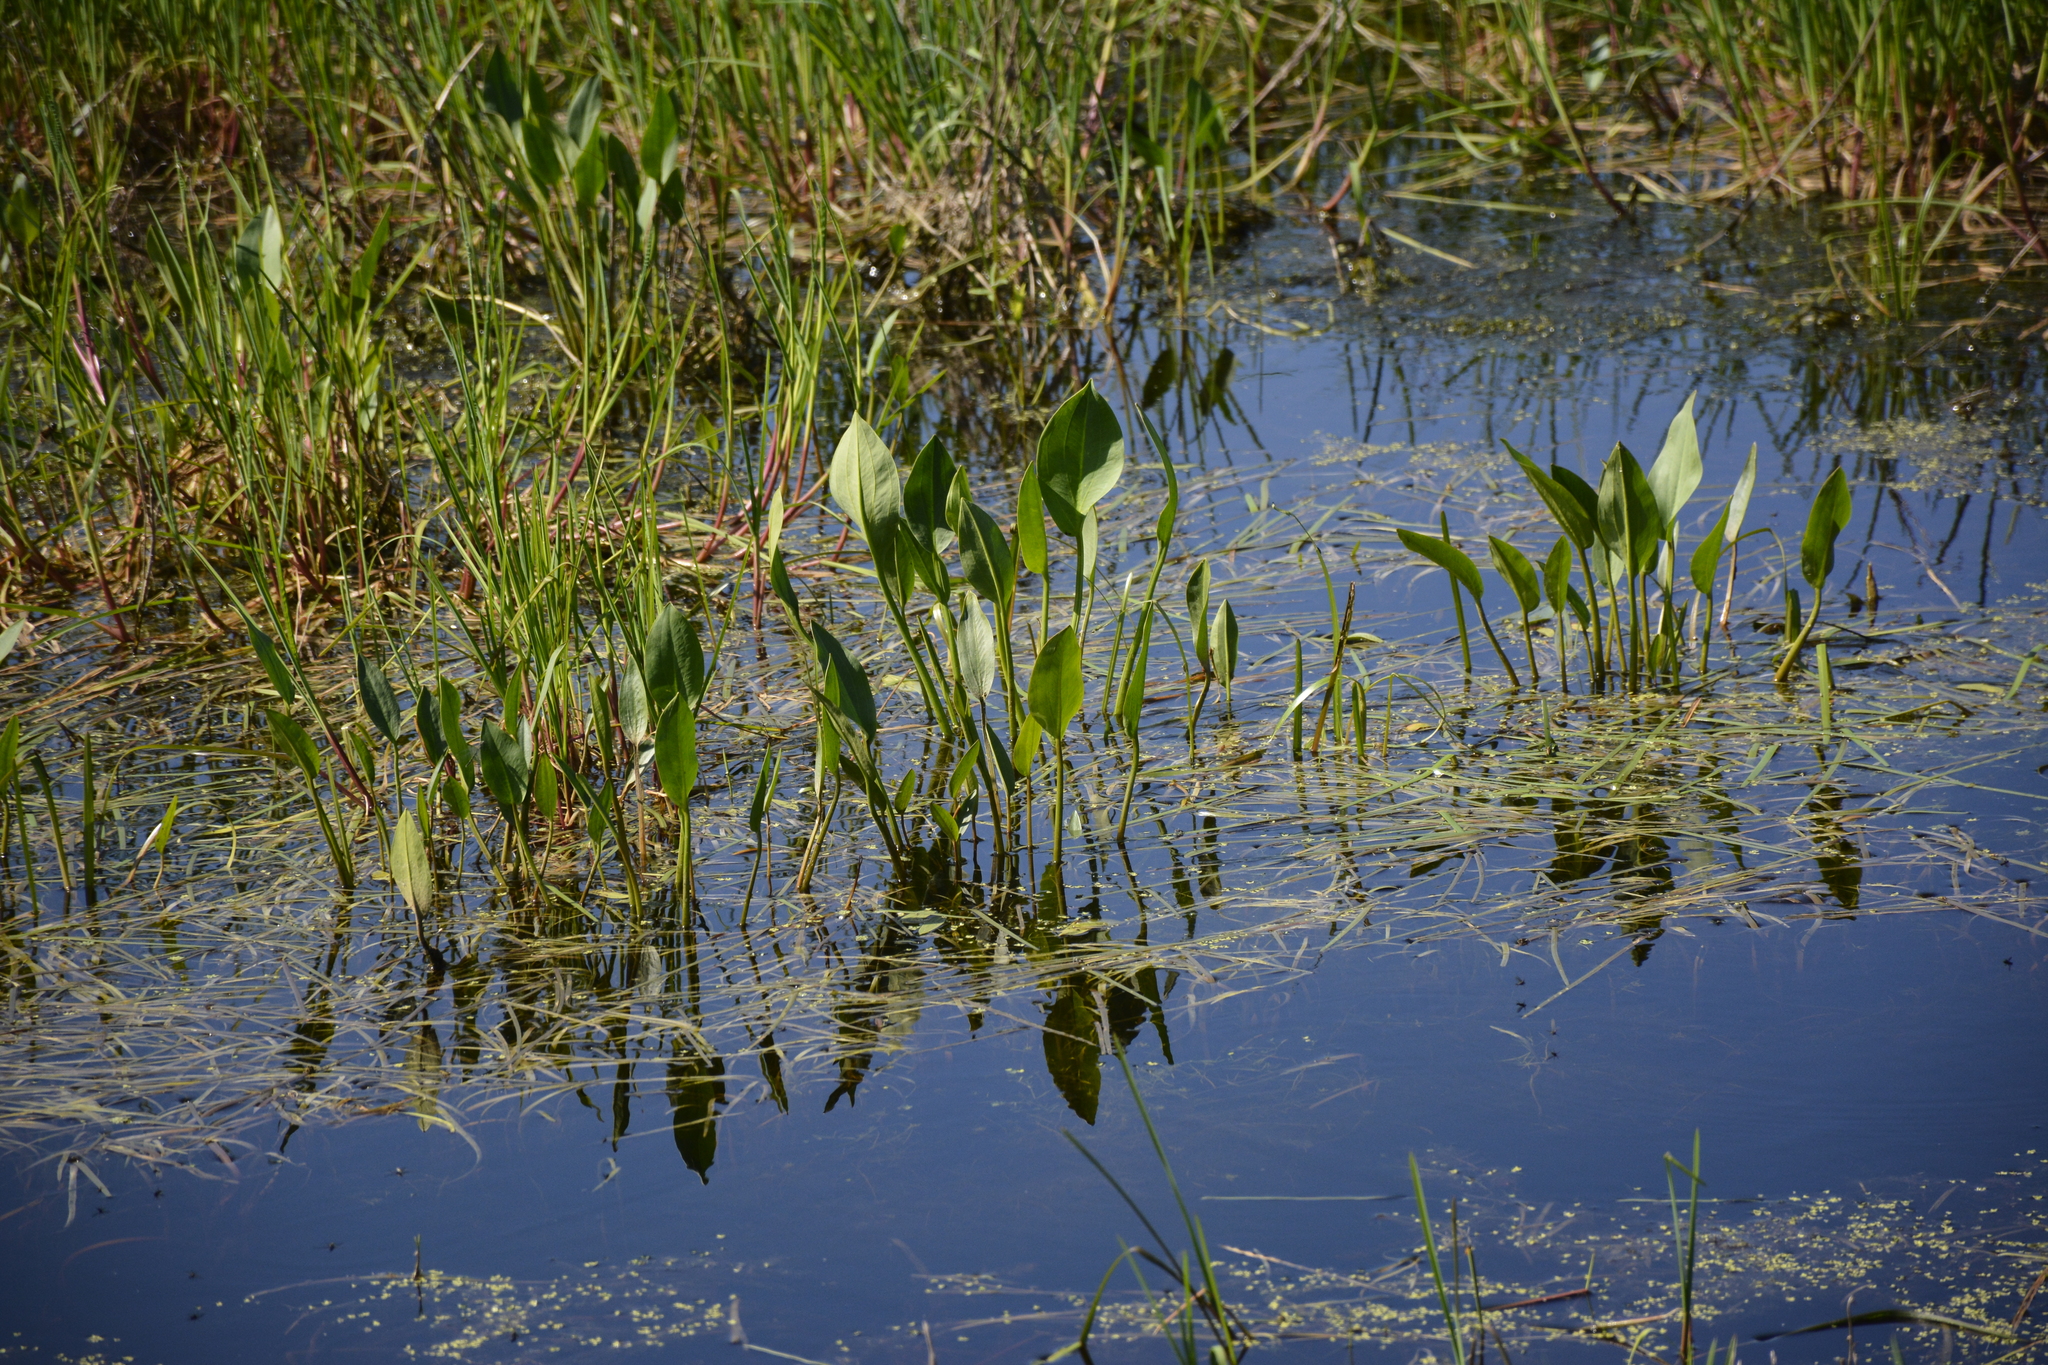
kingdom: Plantae
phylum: Tracheophyta
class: Liliopsida
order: Alismatales
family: Alismataceae
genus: Alisma
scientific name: Alisma plantago-aquatica
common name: Water-plantain
